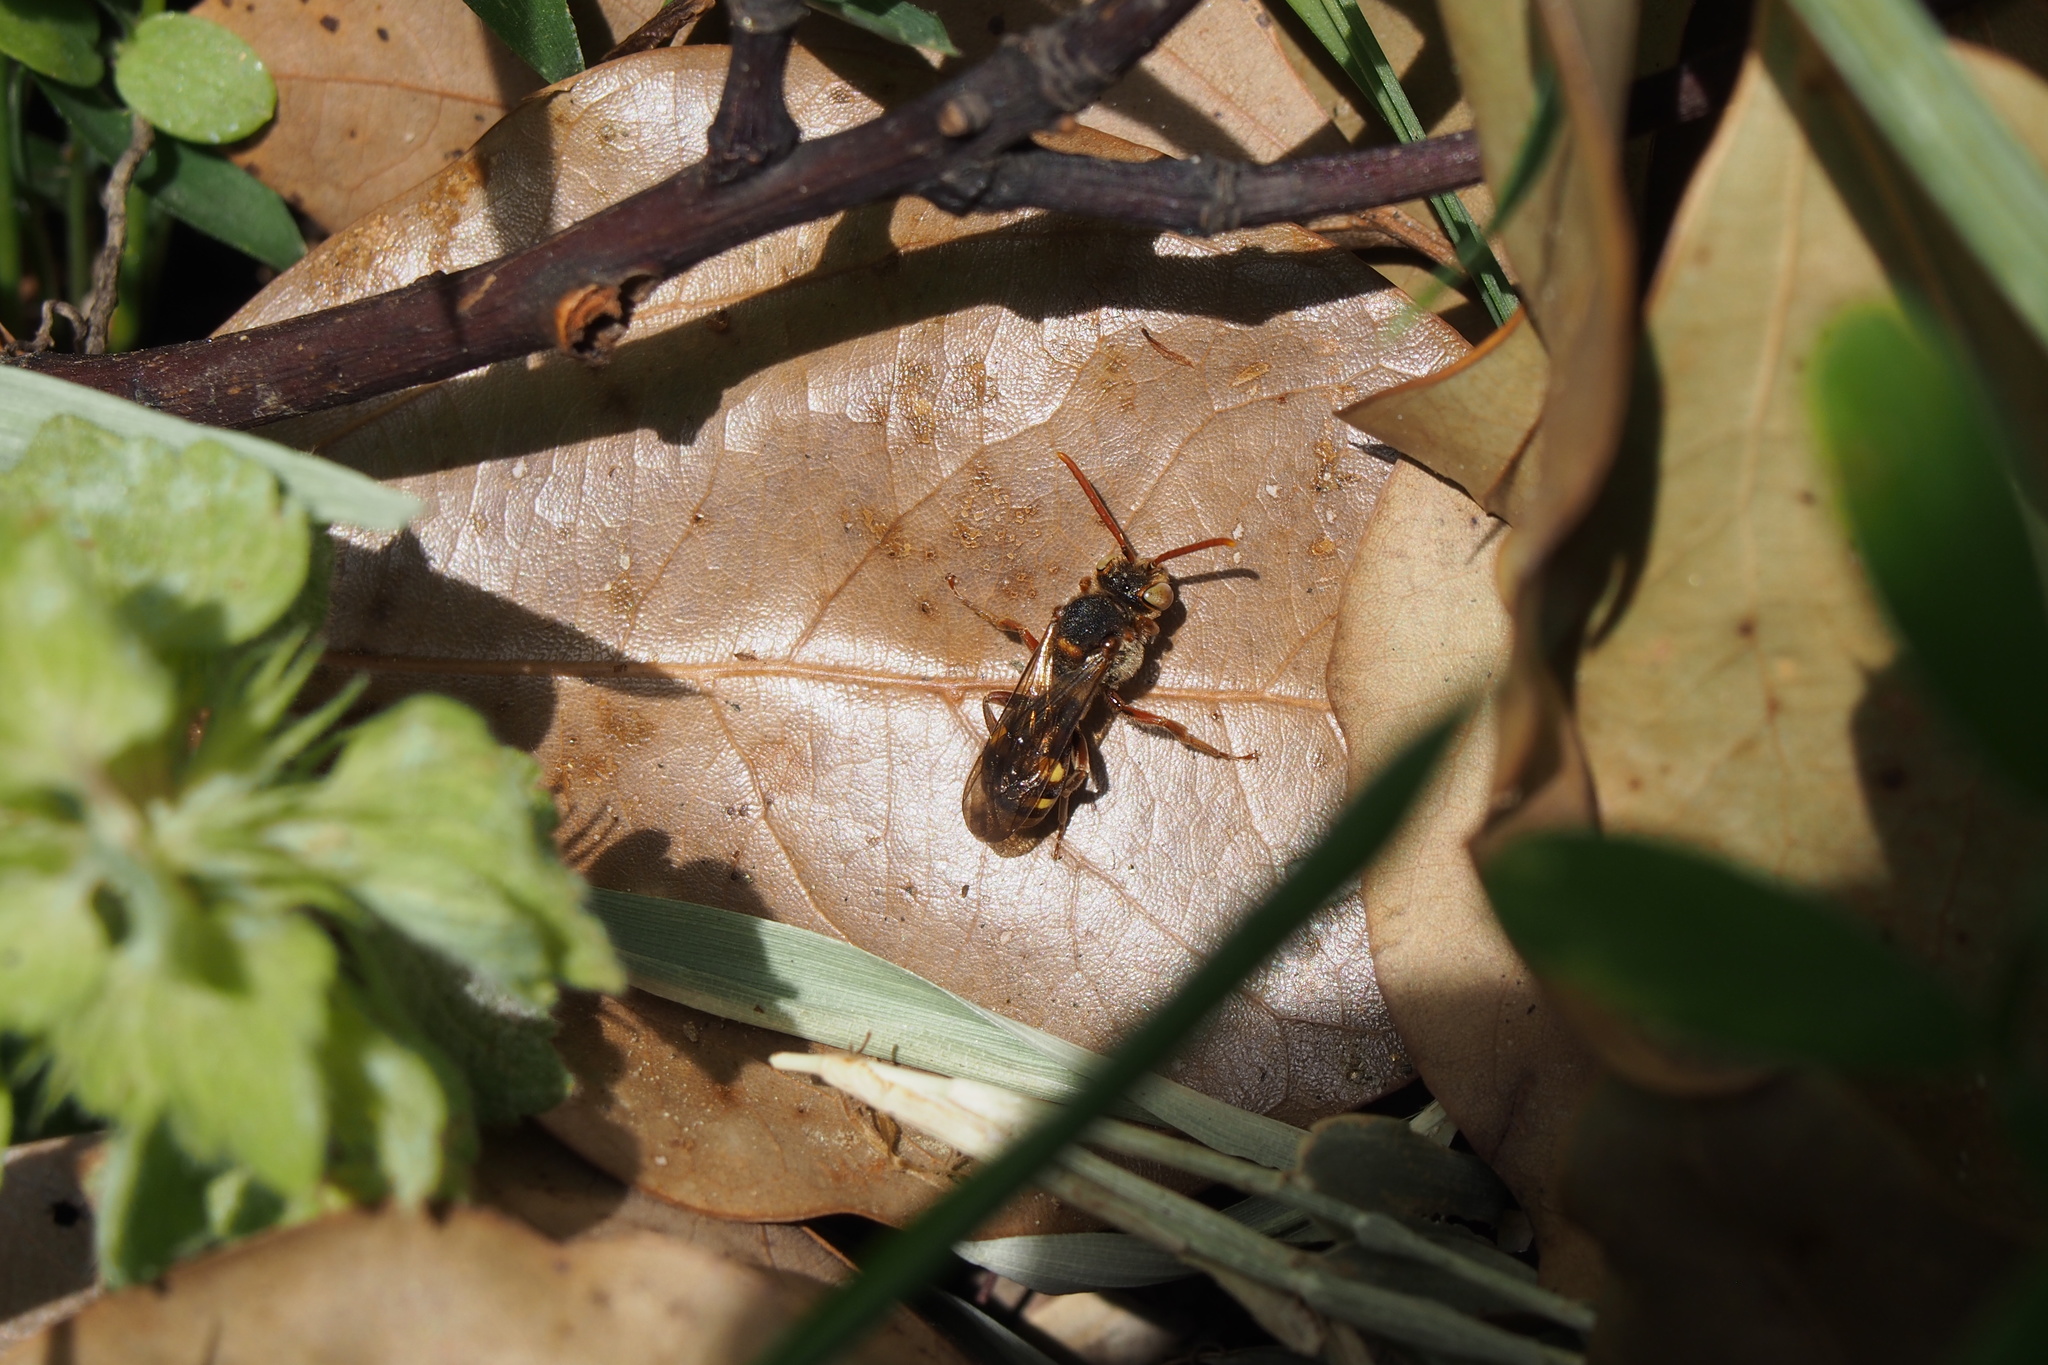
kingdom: Animalia
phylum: Arthropoda
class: Insecta
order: Hymenoptera
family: Apidae
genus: Nomada
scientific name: Nomada japonica
